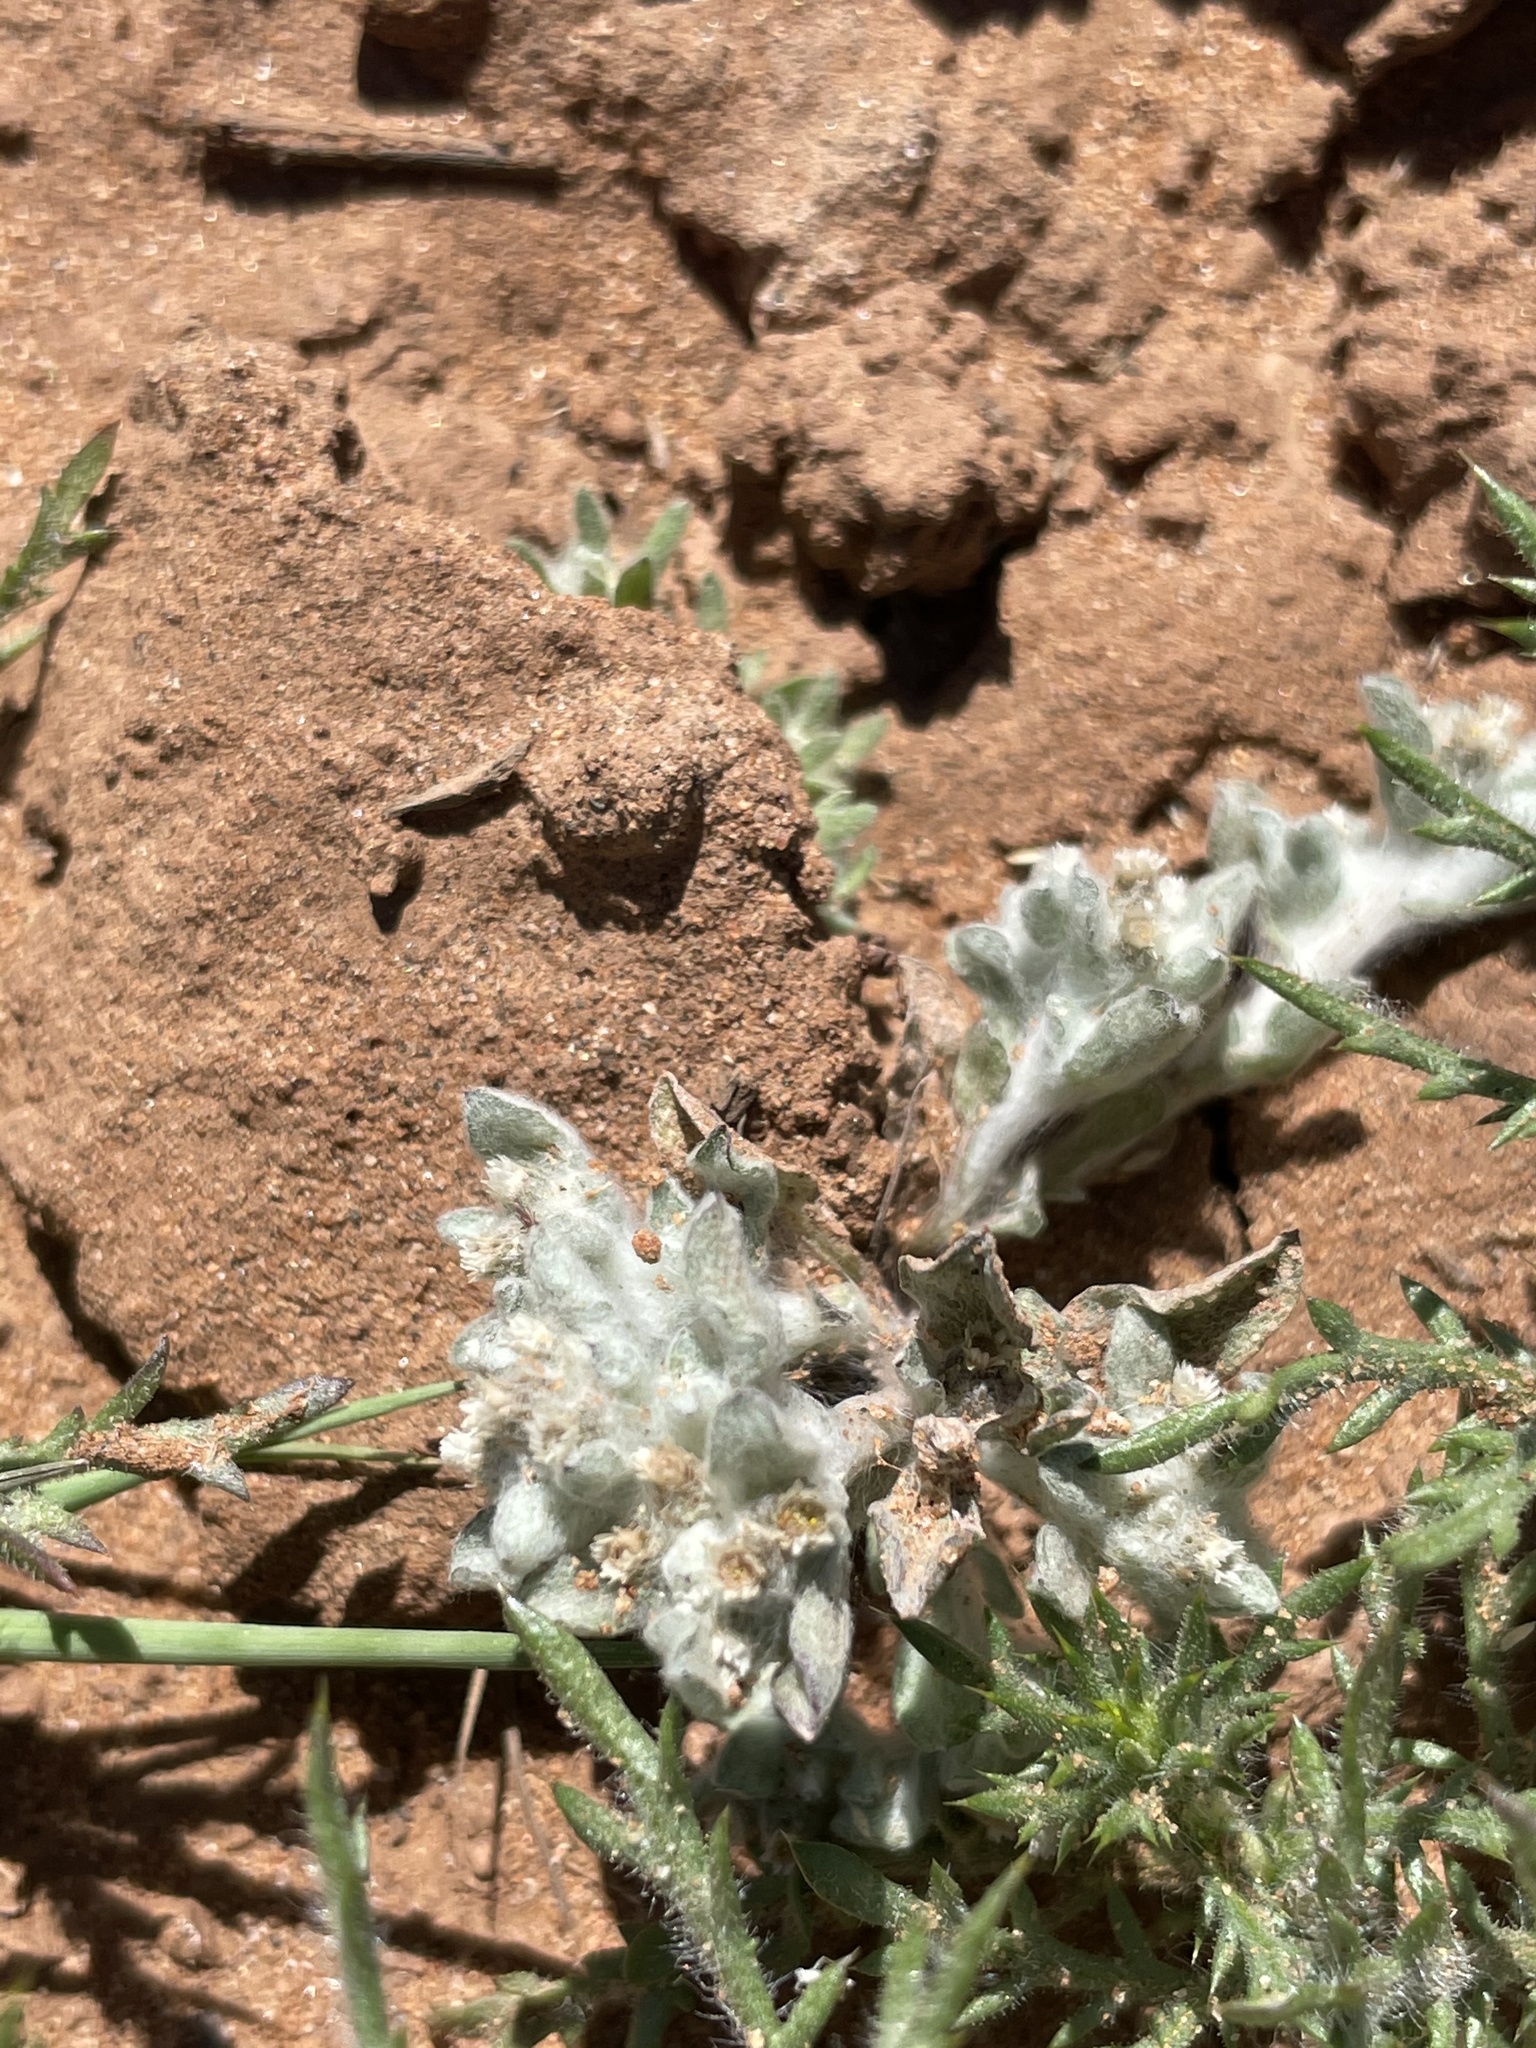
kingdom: Plantae
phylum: Tracheophyta
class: Magnoliopsida
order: Asterales
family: Asteraceae
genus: Gnaphalium
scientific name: Gnaphalium palustre
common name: Western marsh cudweed
